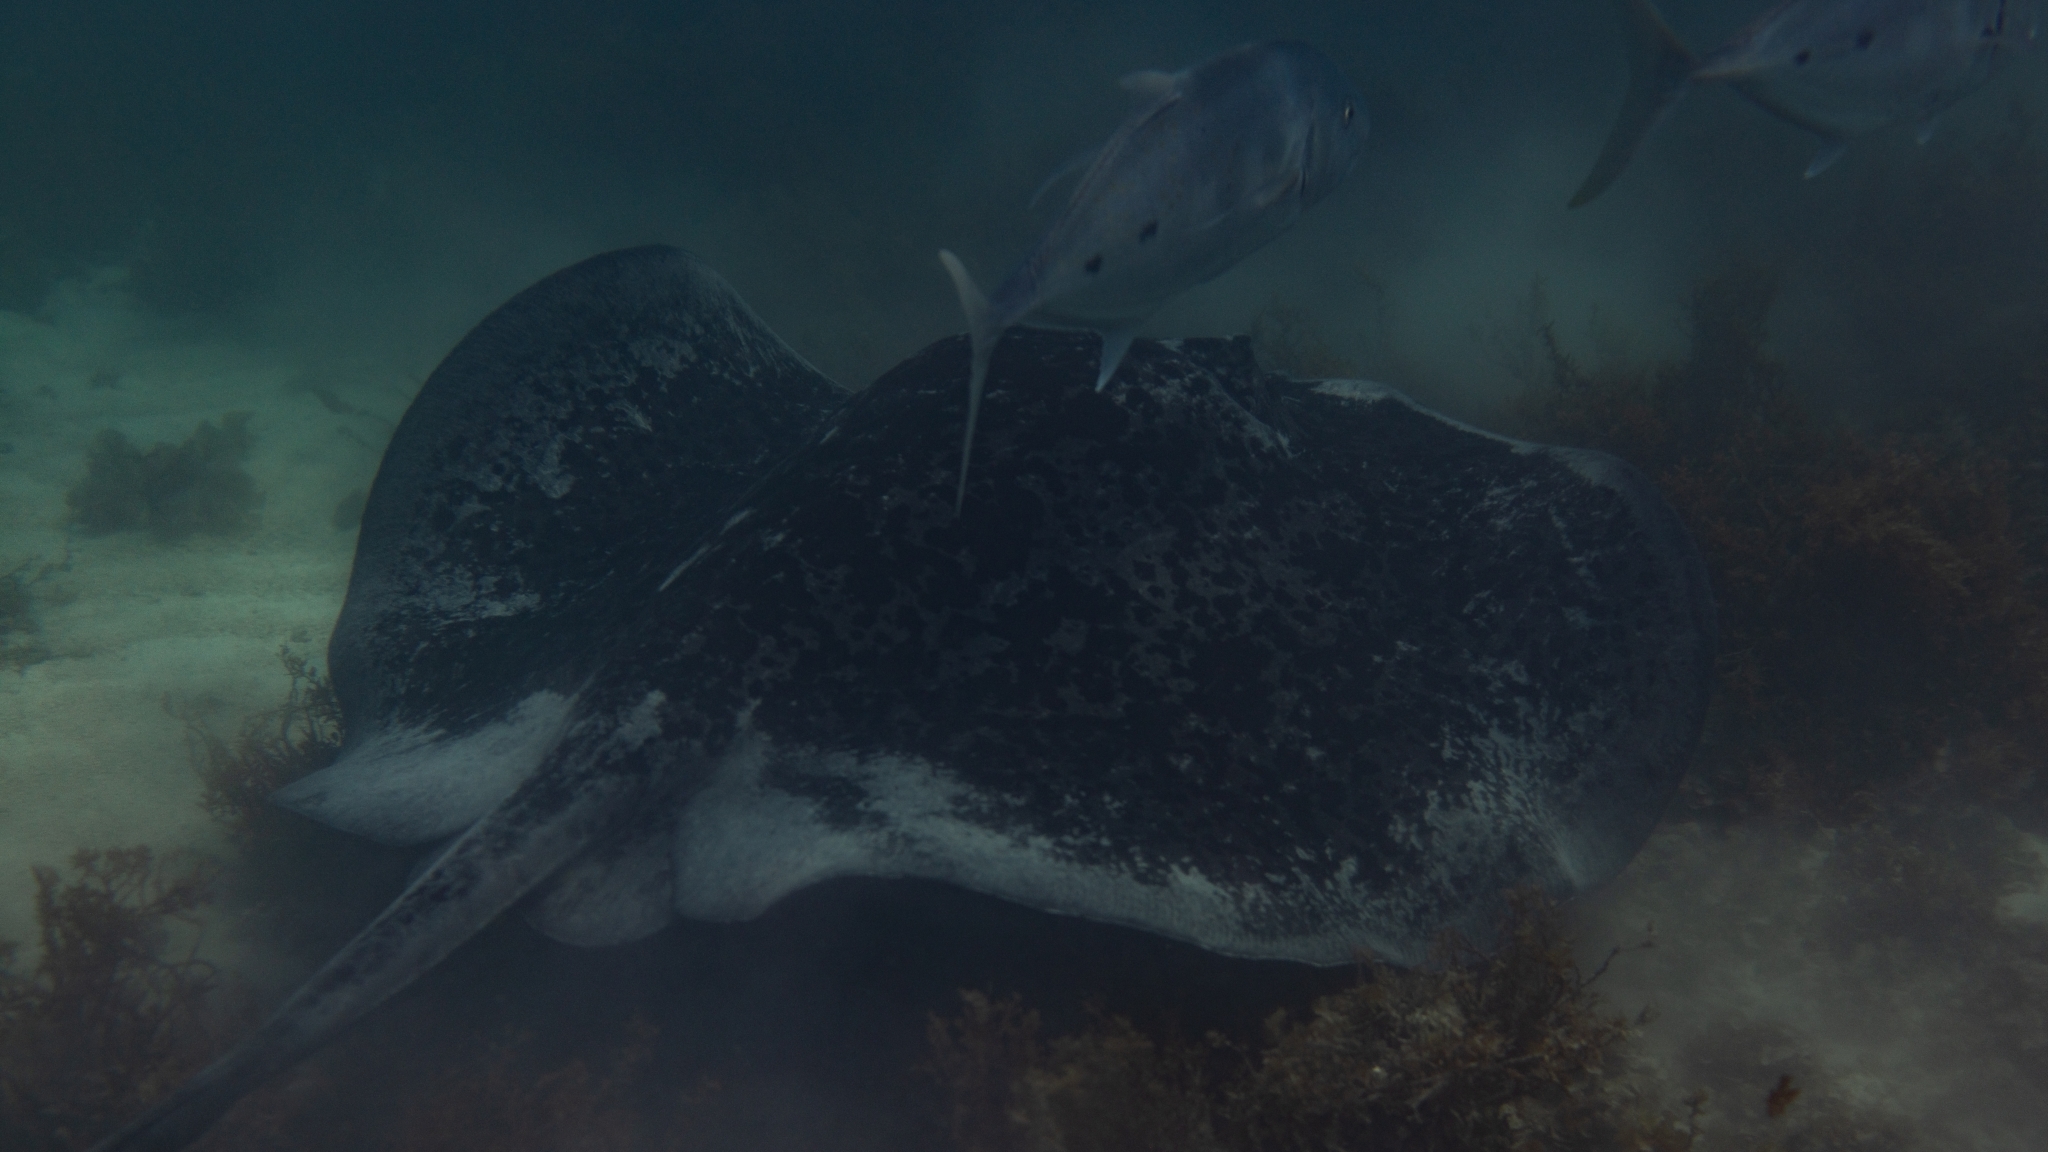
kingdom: Animalia
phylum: Chordata
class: Elasmobranchii
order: Myliobatiformes
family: Dasyatidae
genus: Taeniurops
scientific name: Taeniurops meyeni
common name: Black-blotched stingray
